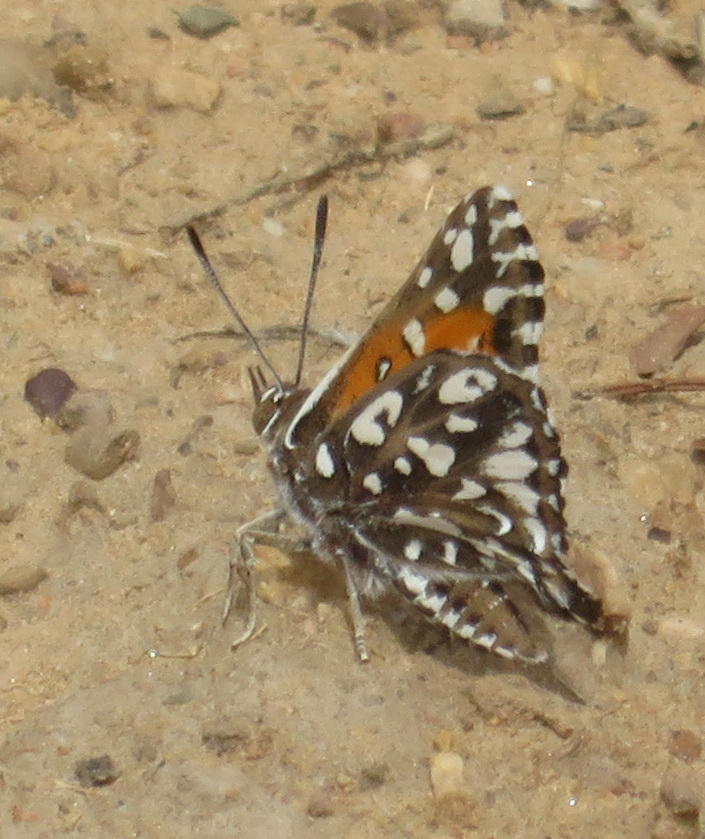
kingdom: Animalia
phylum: Arthropoda
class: Insecta
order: Lepidoptera
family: Lycaenidae
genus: Trimenia
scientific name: Trimenia argyroplaga
